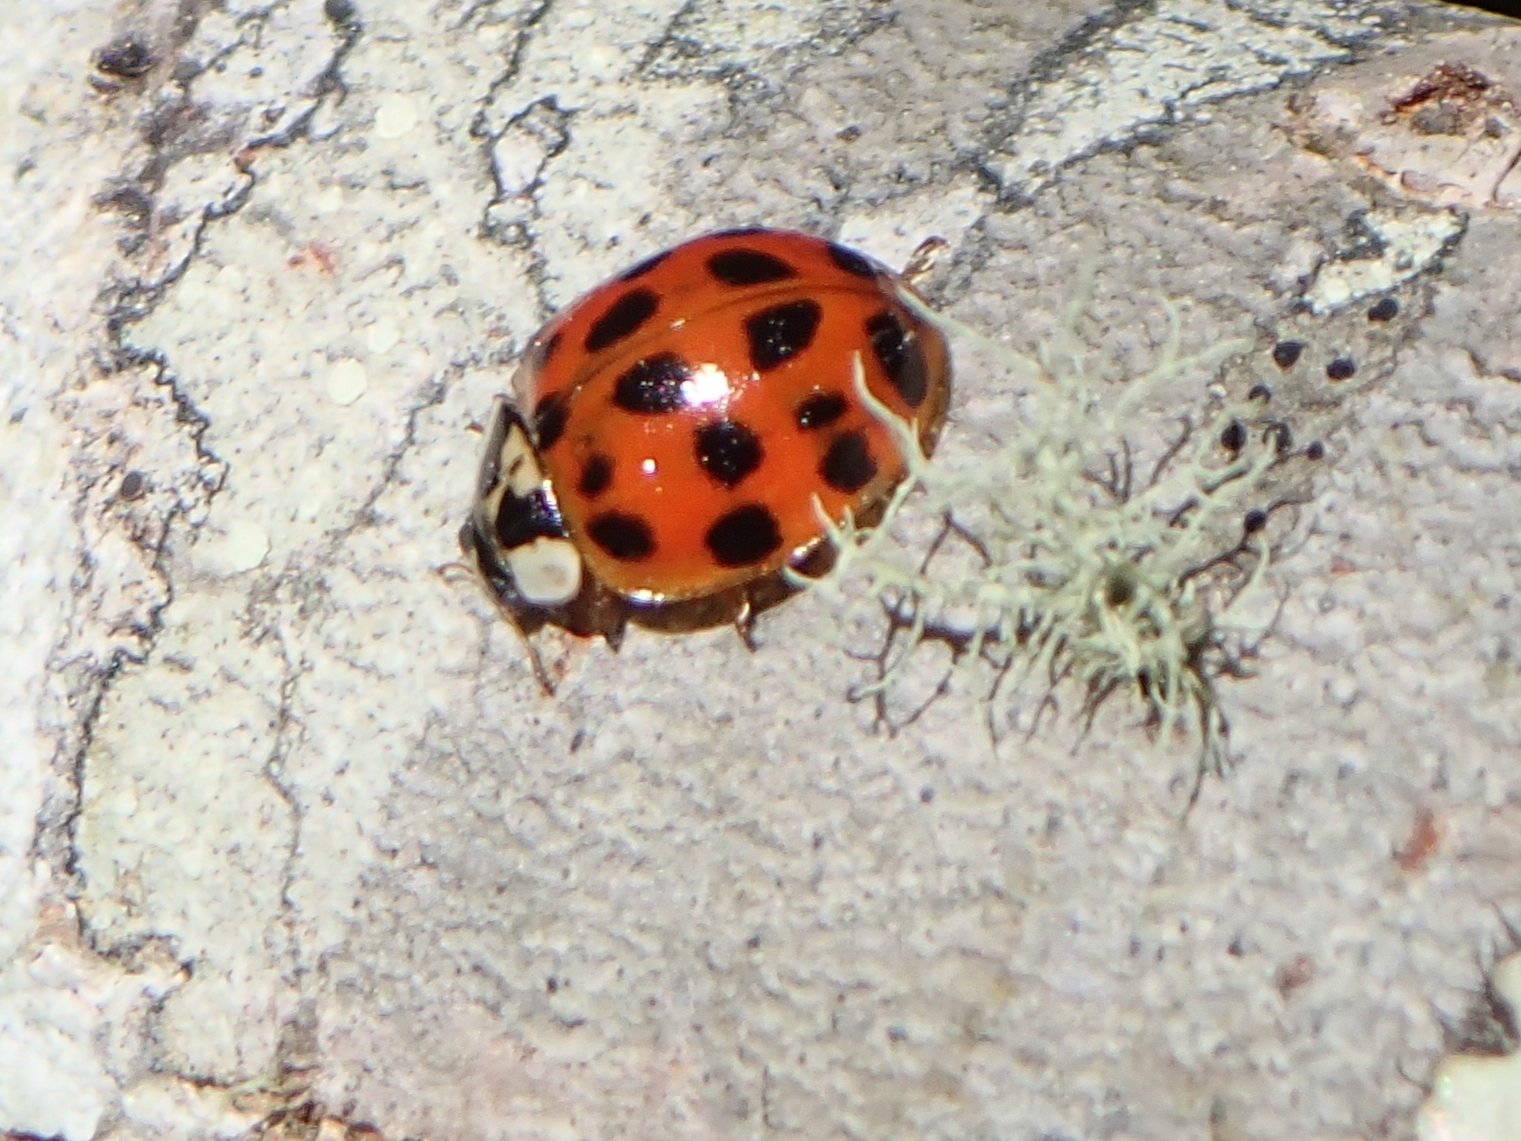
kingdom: Animalia
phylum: Arthropoda
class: Insecta
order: Coleoptera
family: Coccinellidae
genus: Harmonia
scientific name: Harmonia axyridis
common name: Harlequin ladybird
